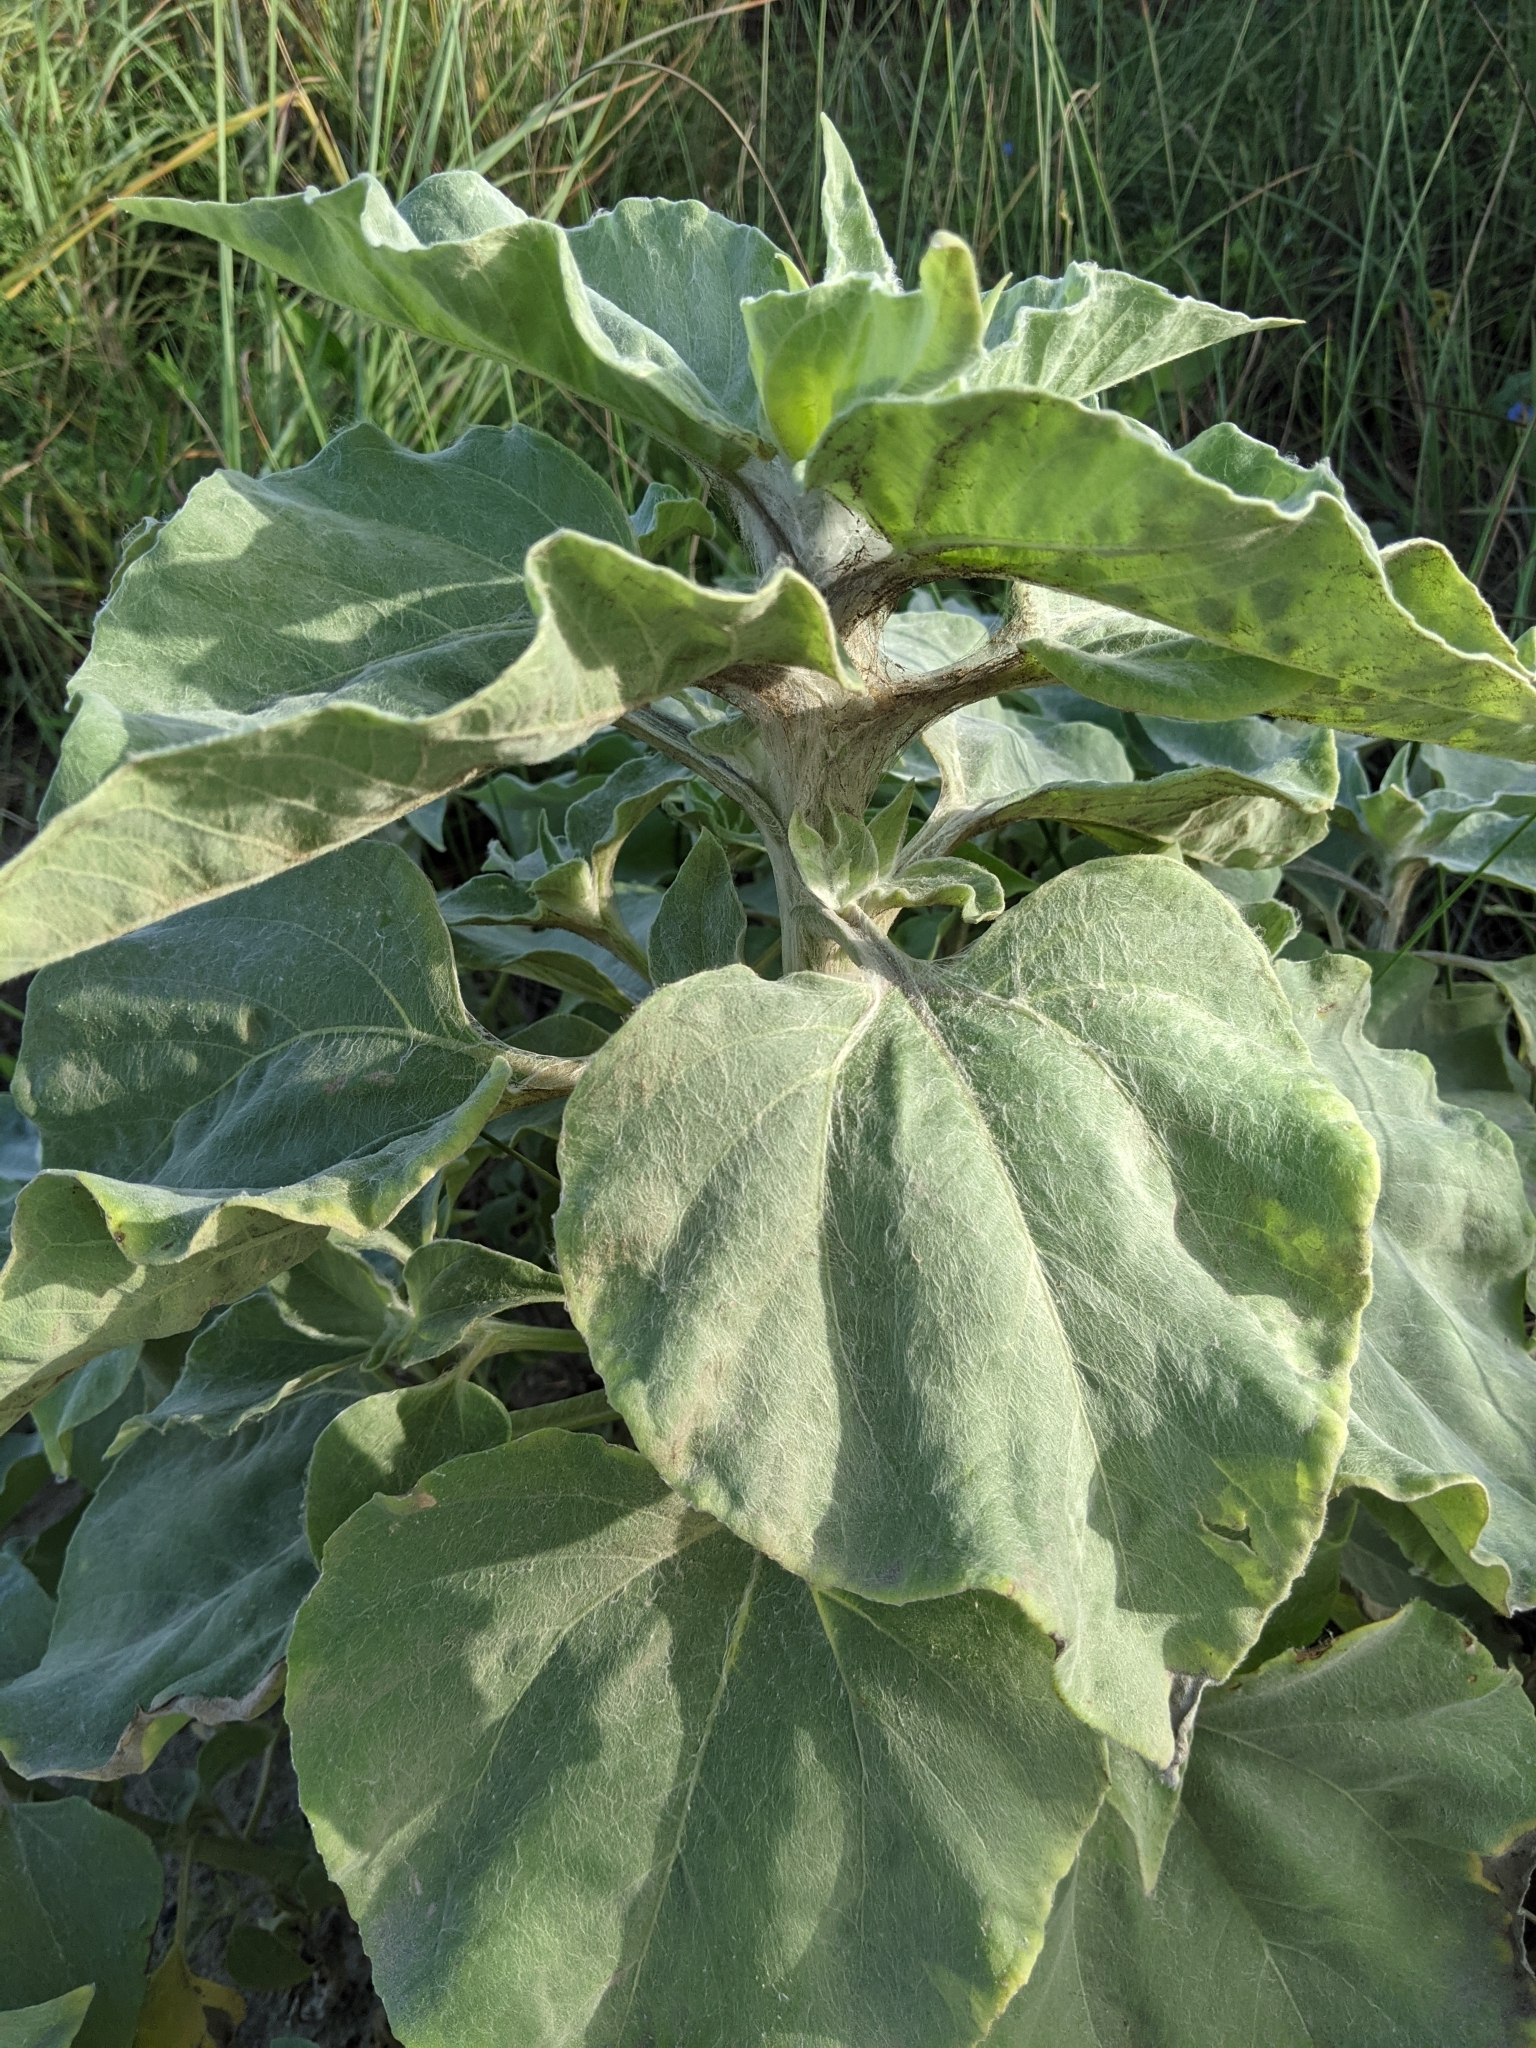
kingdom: Plantae
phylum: Tracheophyta
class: Magnoliopsida
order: Asterales
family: Asteraceae
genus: Helianthus
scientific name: Helianthus argophyllus
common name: Silverleaf sunflower
